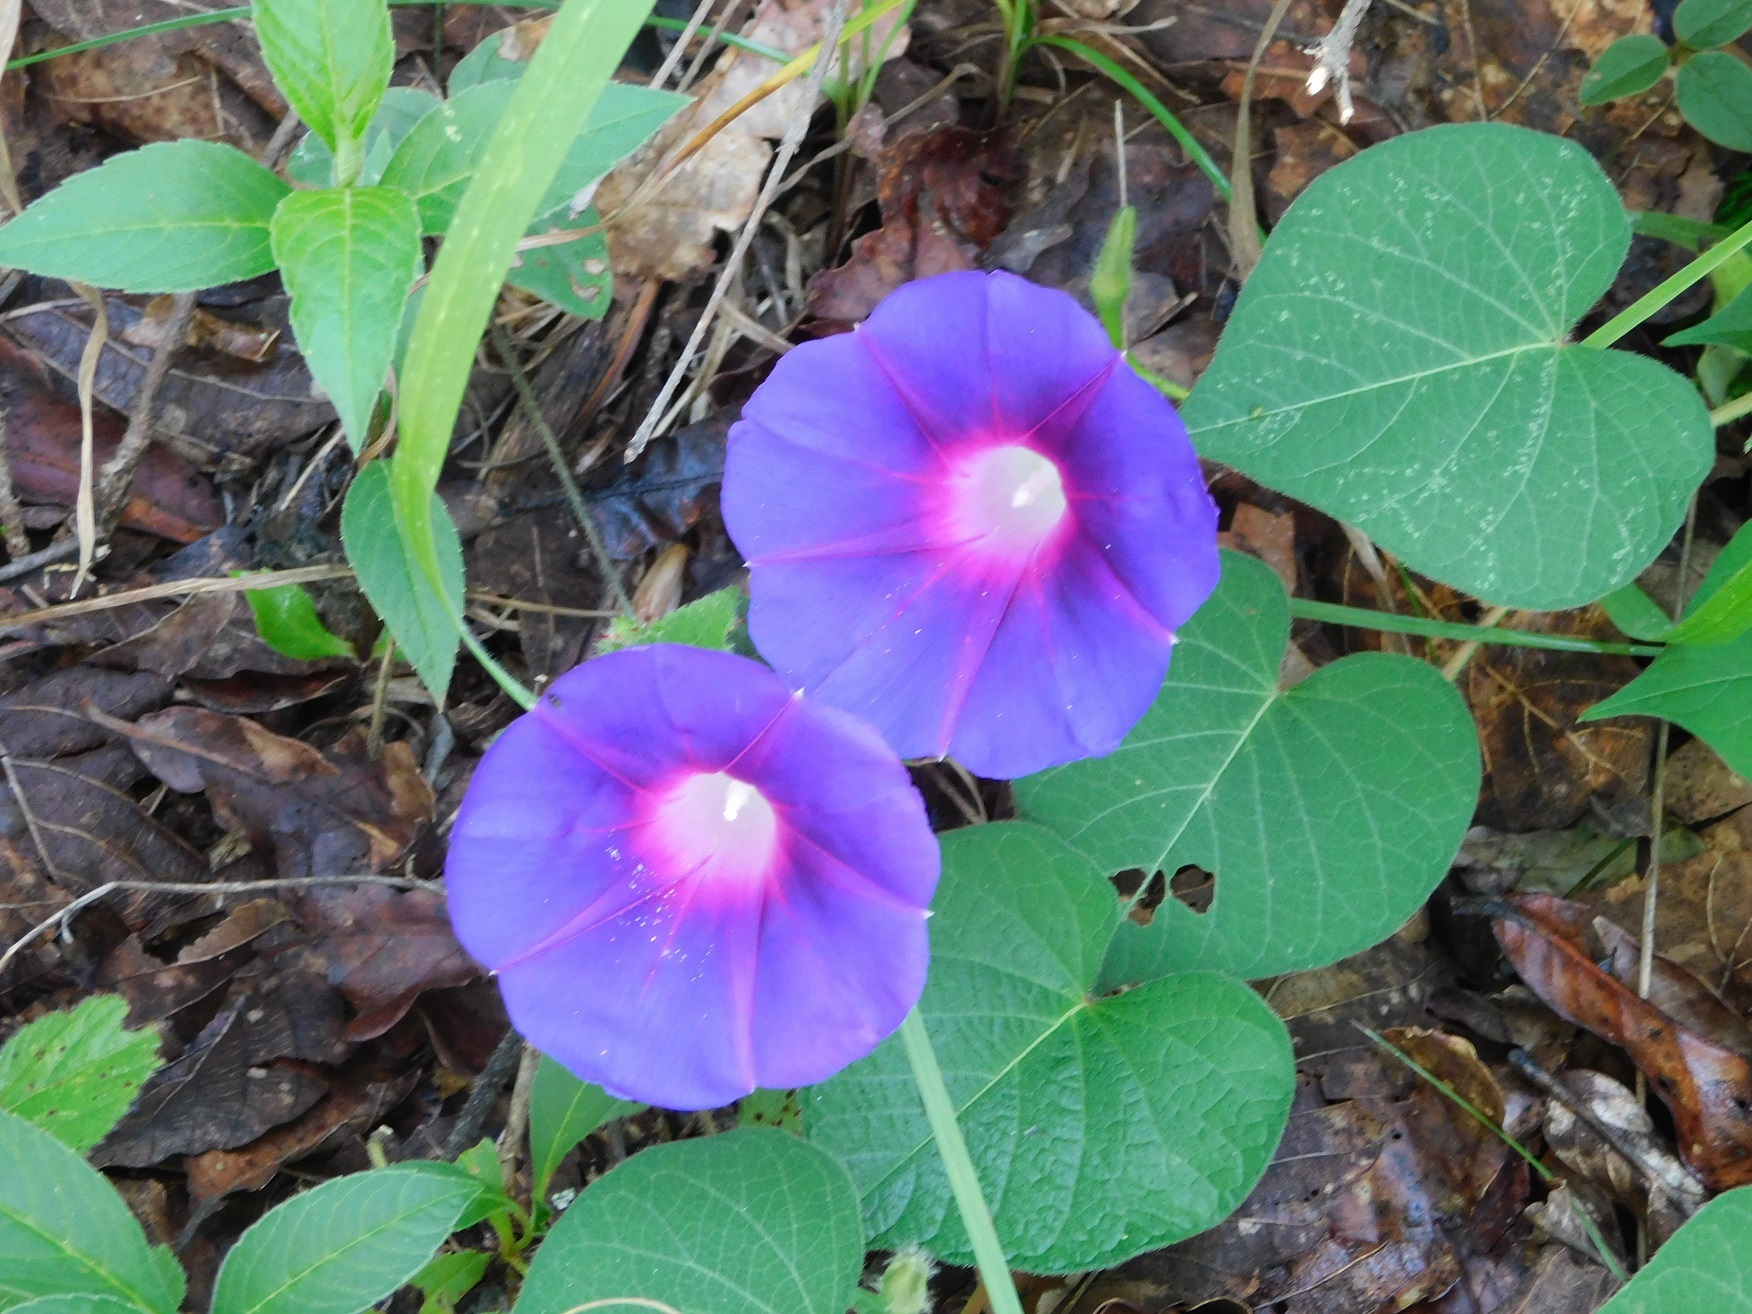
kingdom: Plantae
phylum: Tracheophyta
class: Magnoliopsida
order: Solanales
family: Convolvulaceae
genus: Ipomoea
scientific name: Ipomoea orizabensis
